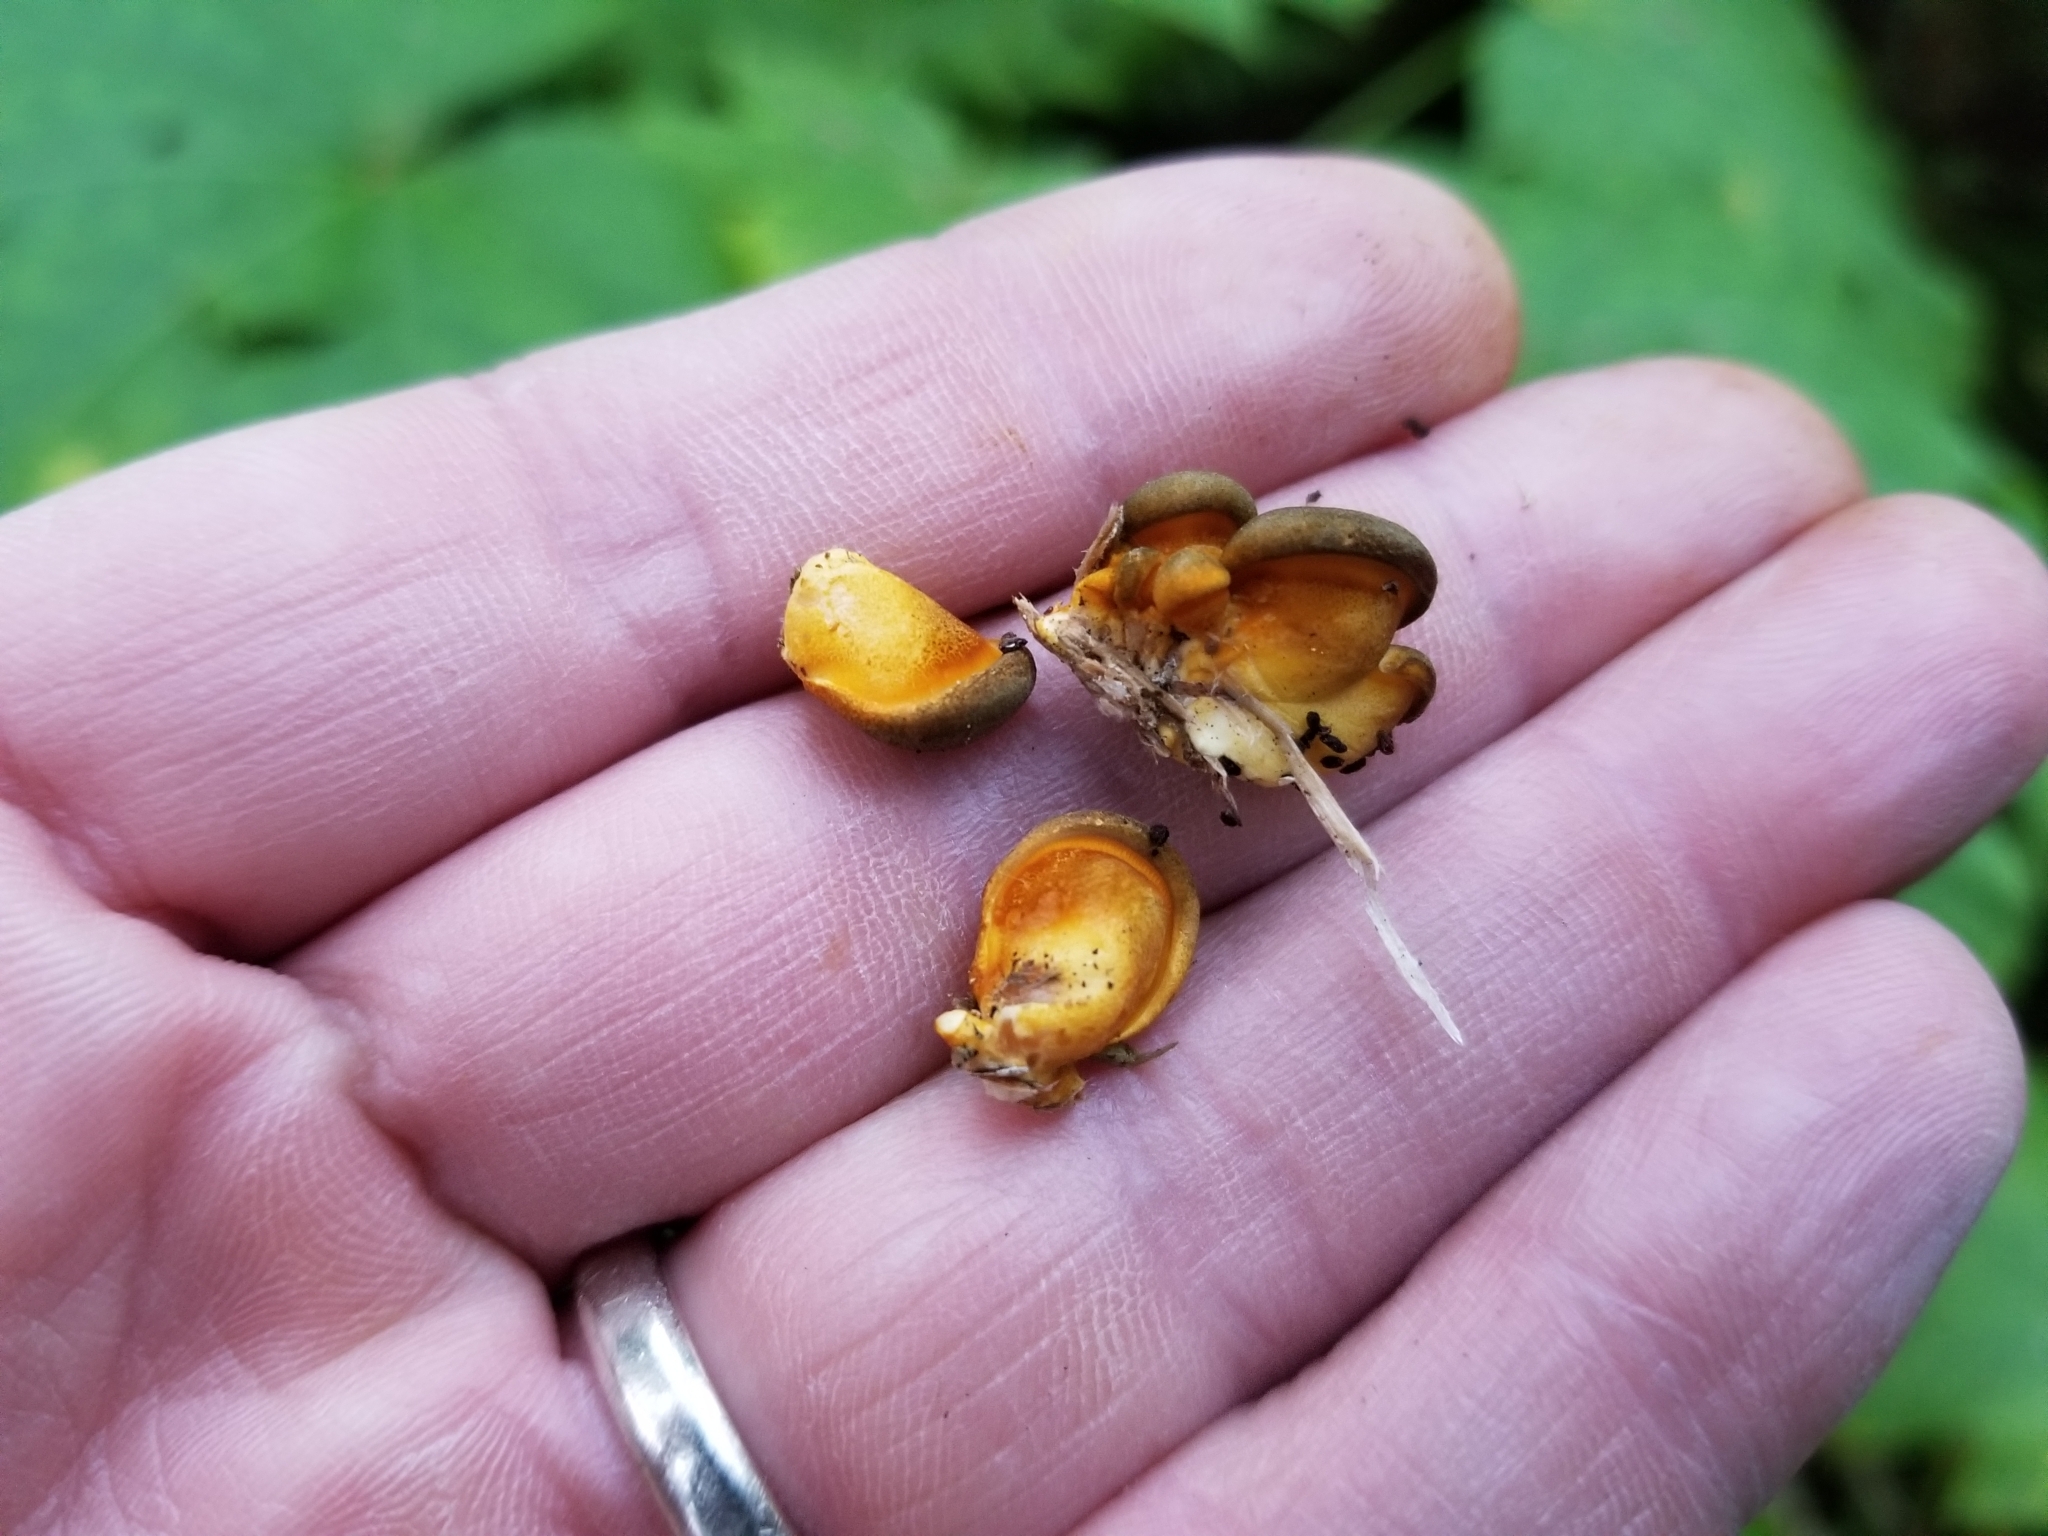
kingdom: Fungi
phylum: Basidiomycota
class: Agaricomycetes
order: Agaricales
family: Sarcomyxaceae
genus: Sarcomyxa
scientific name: Sarcomyxa serotina
